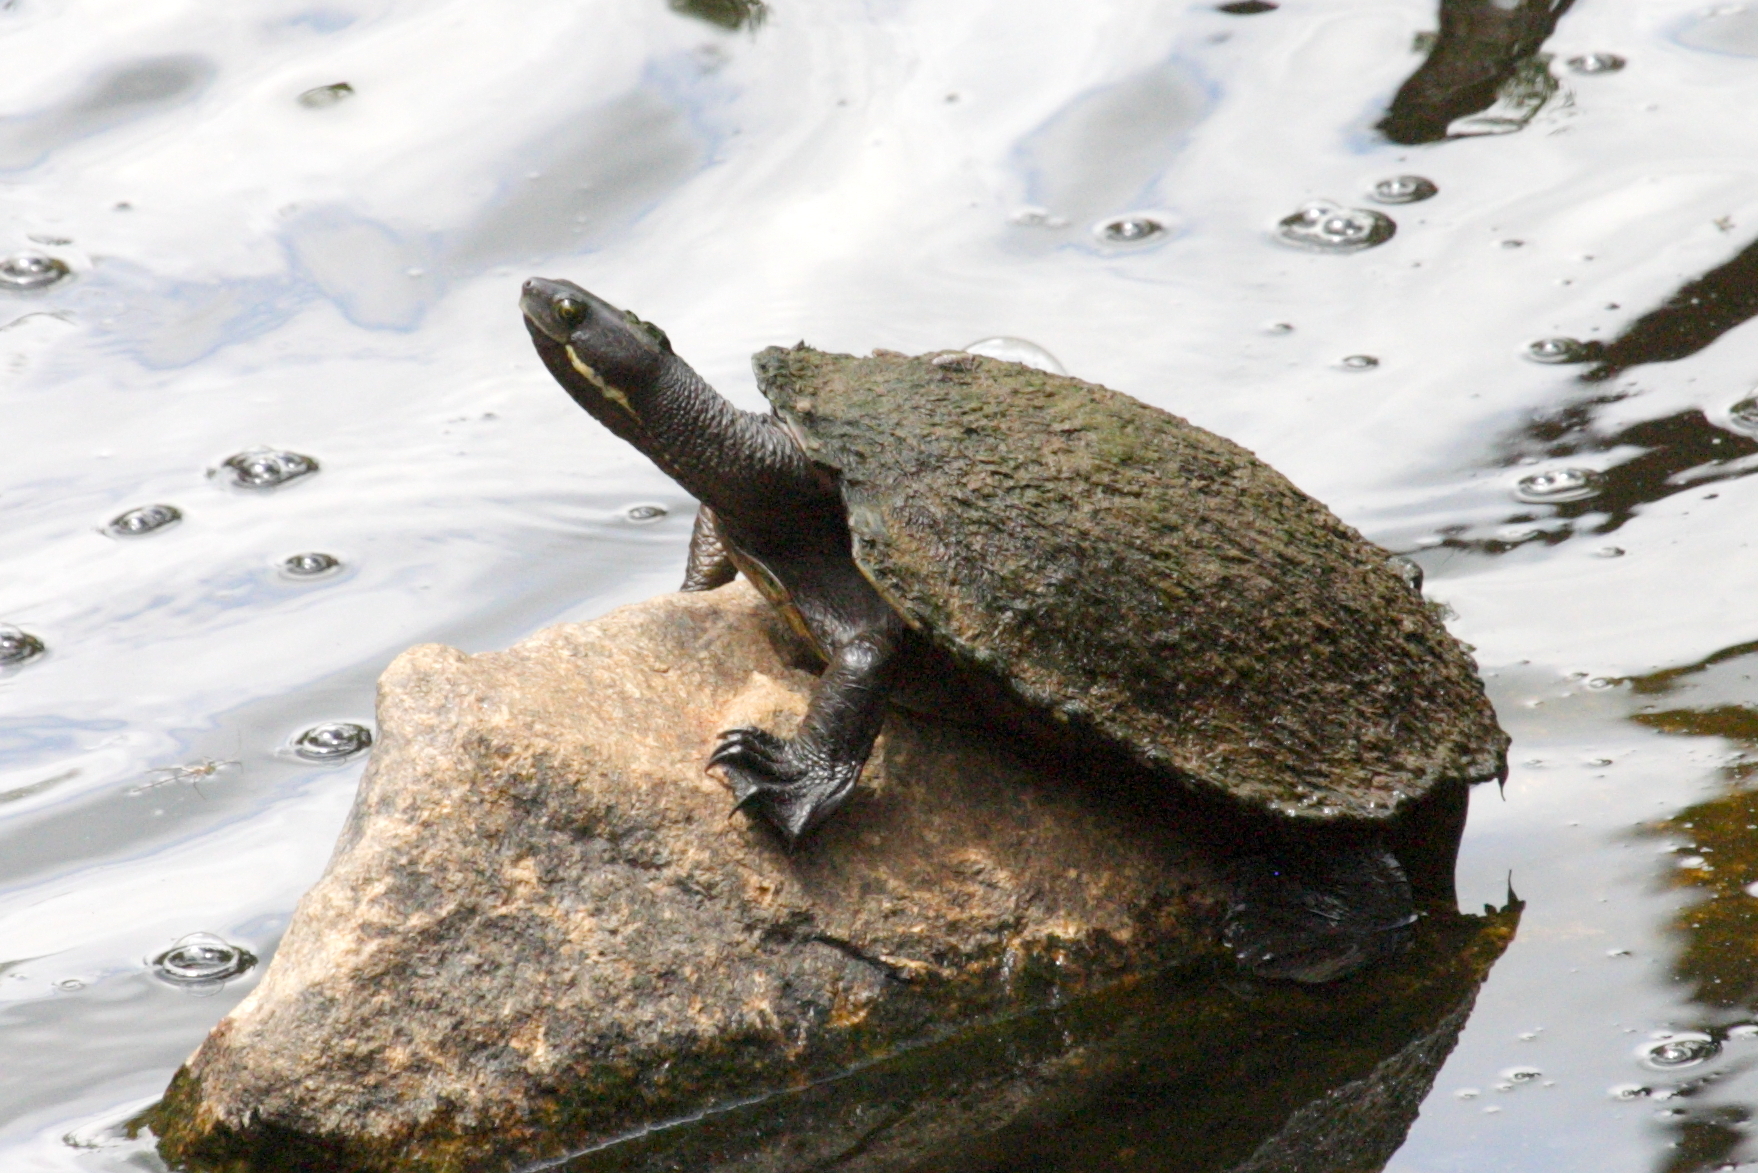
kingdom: Animalia
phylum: Chordata
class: Testudines
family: Chelidae
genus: Emydura
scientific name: Emydura macquarii
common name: Murray river turtle
